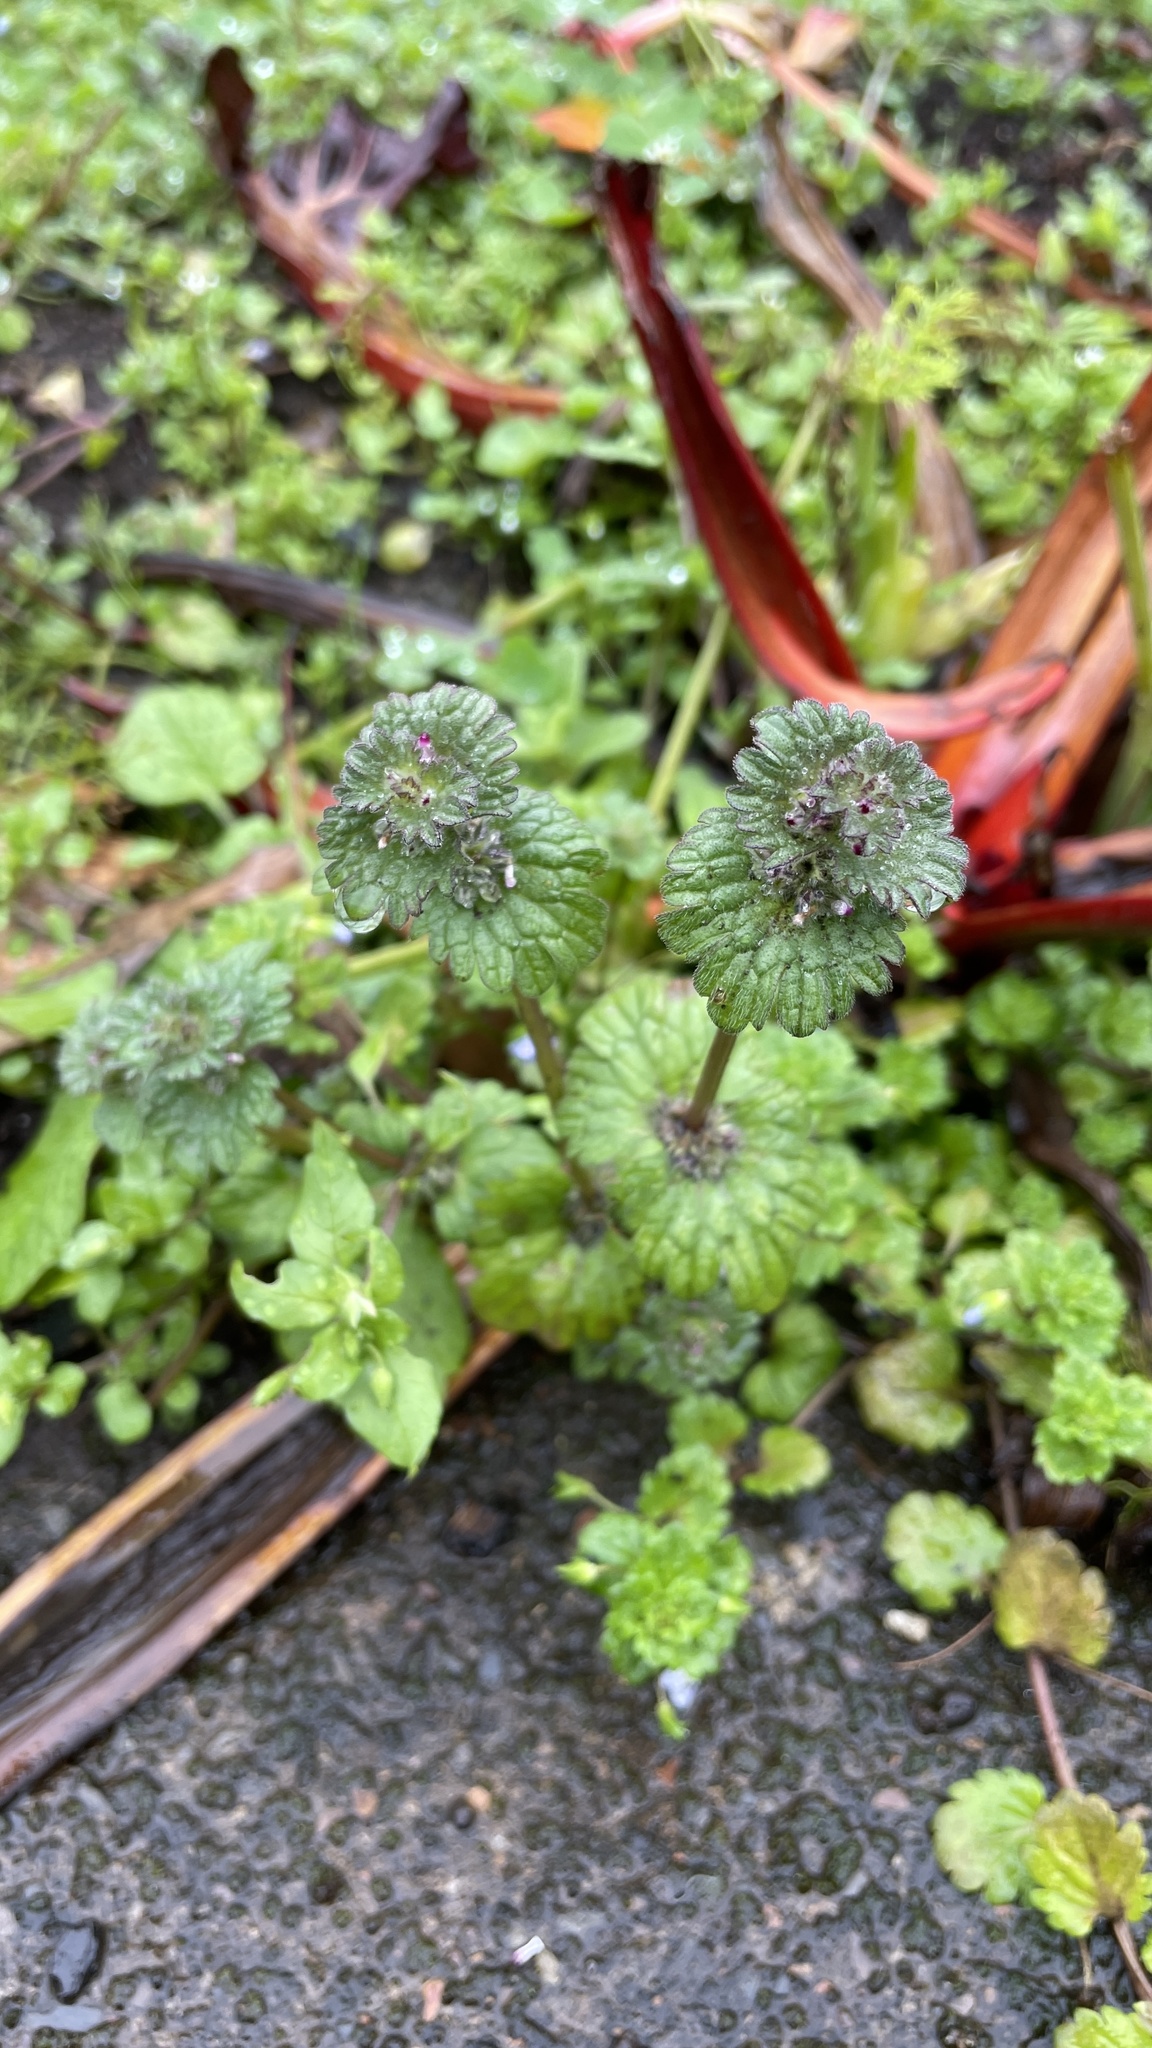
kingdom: Plantae
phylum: Tracheophyta
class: Magnoliopsida
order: Lamiales
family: Lamiaceae
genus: Lamium
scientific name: Lamium amplexicaule
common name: Henbit dead-nettle
